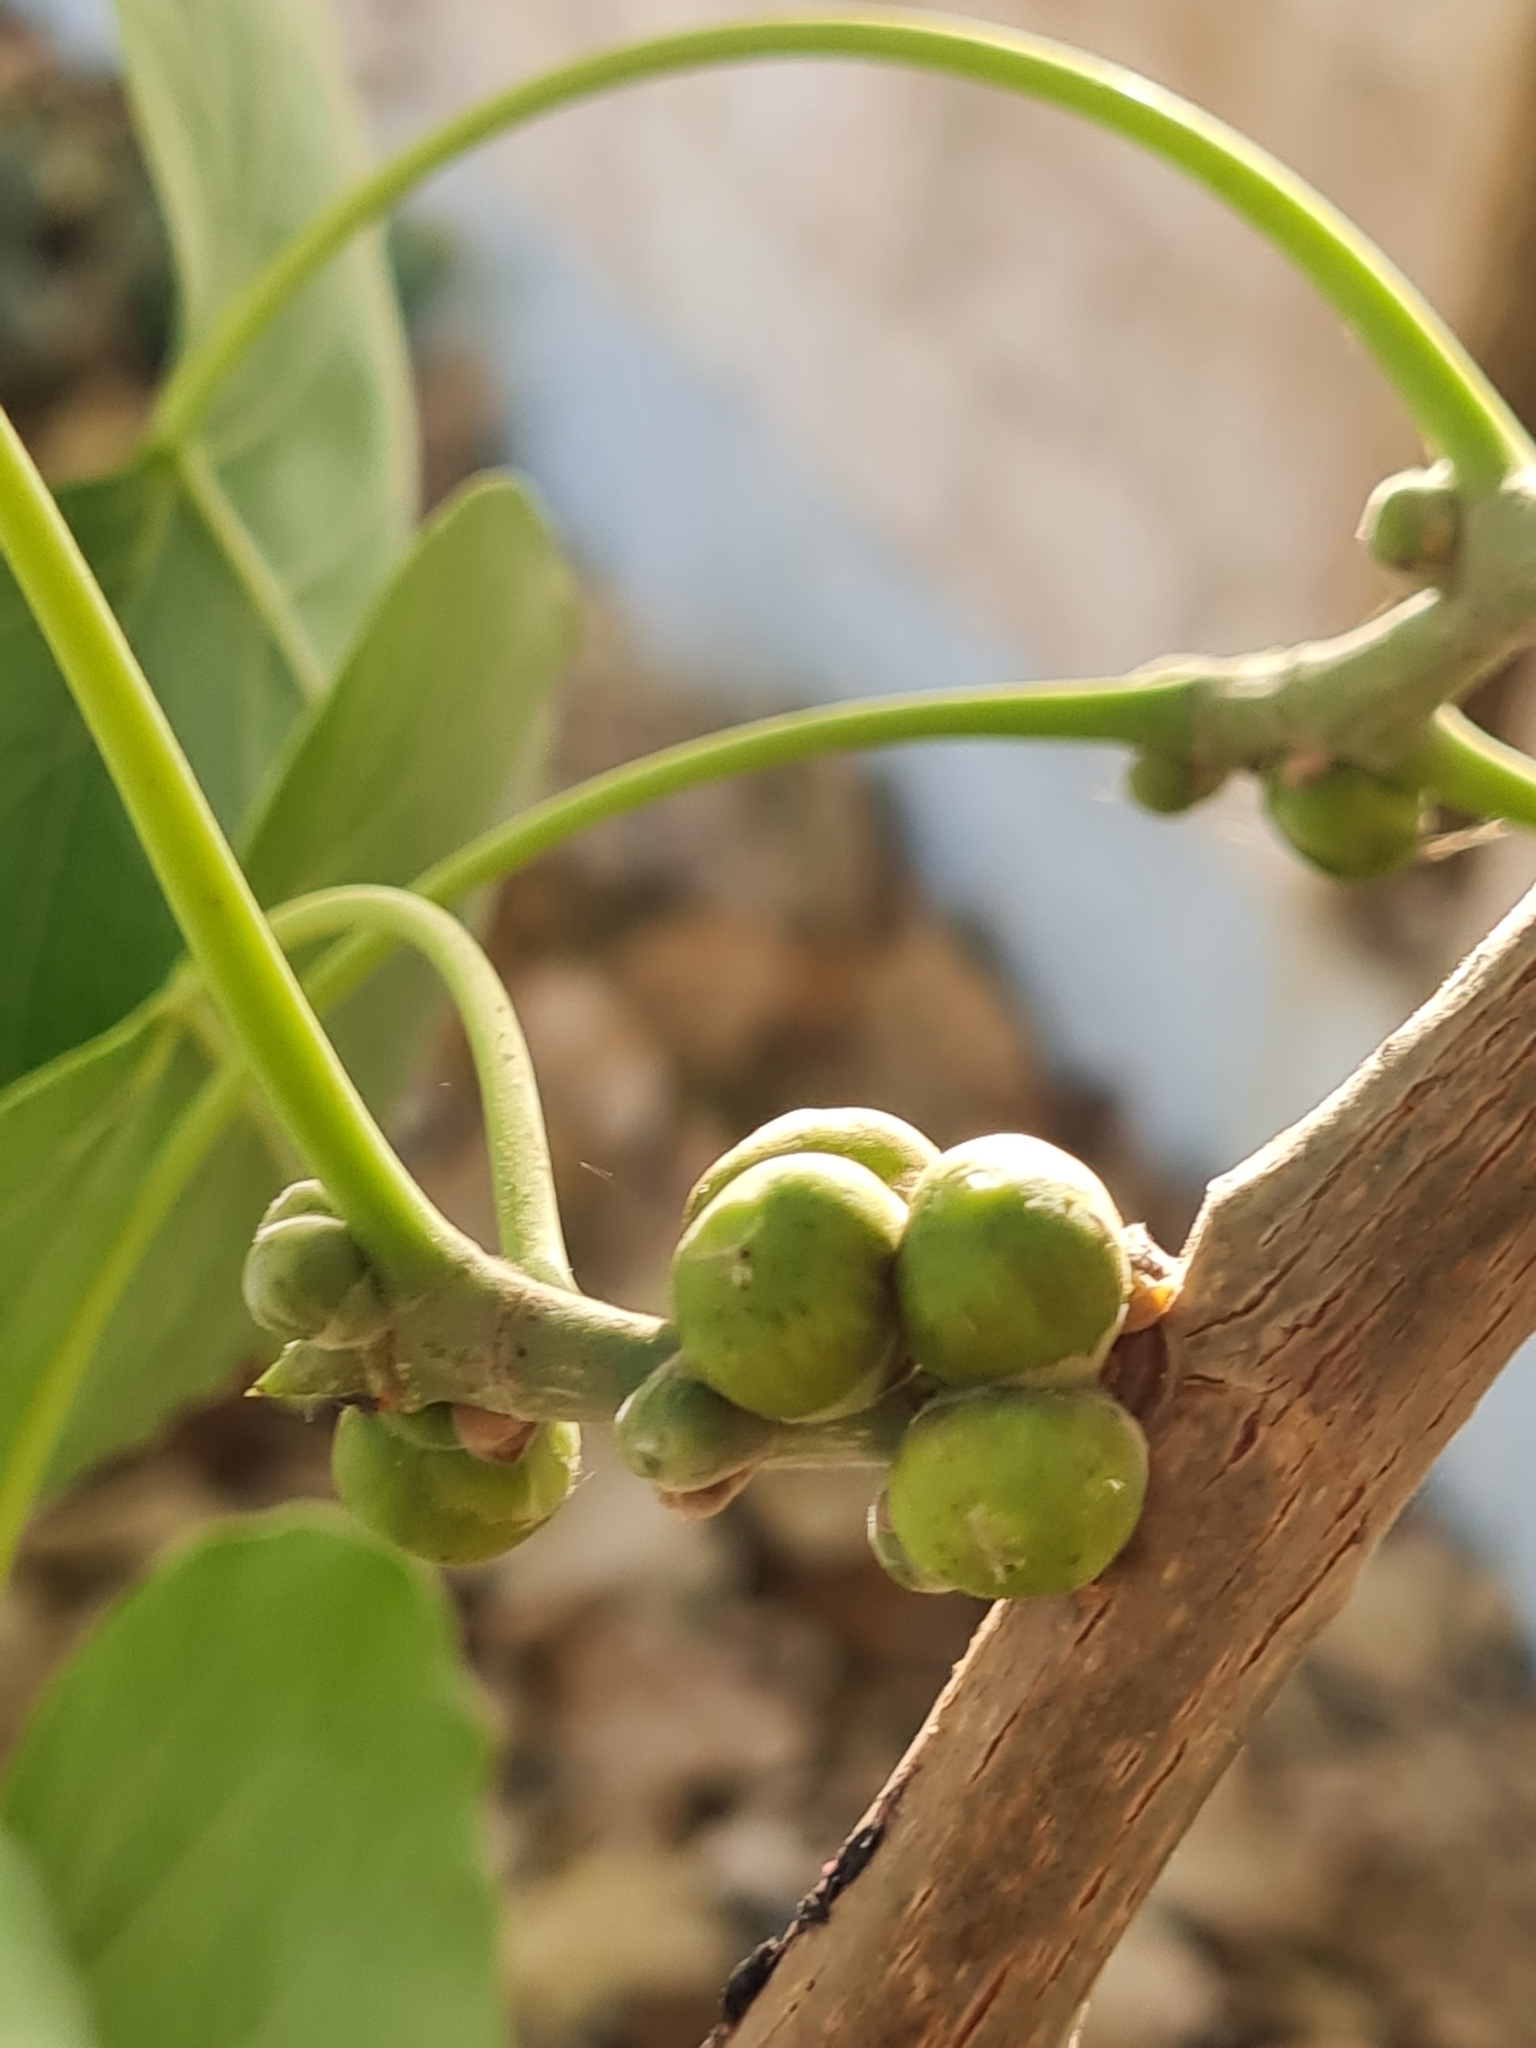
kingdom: Plantae
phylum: Tracheophyta
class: Magnoliopsida
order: Rosales
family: Moraceae
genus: Ficus
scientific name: Ficus religiosa
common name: Bodhi tree
